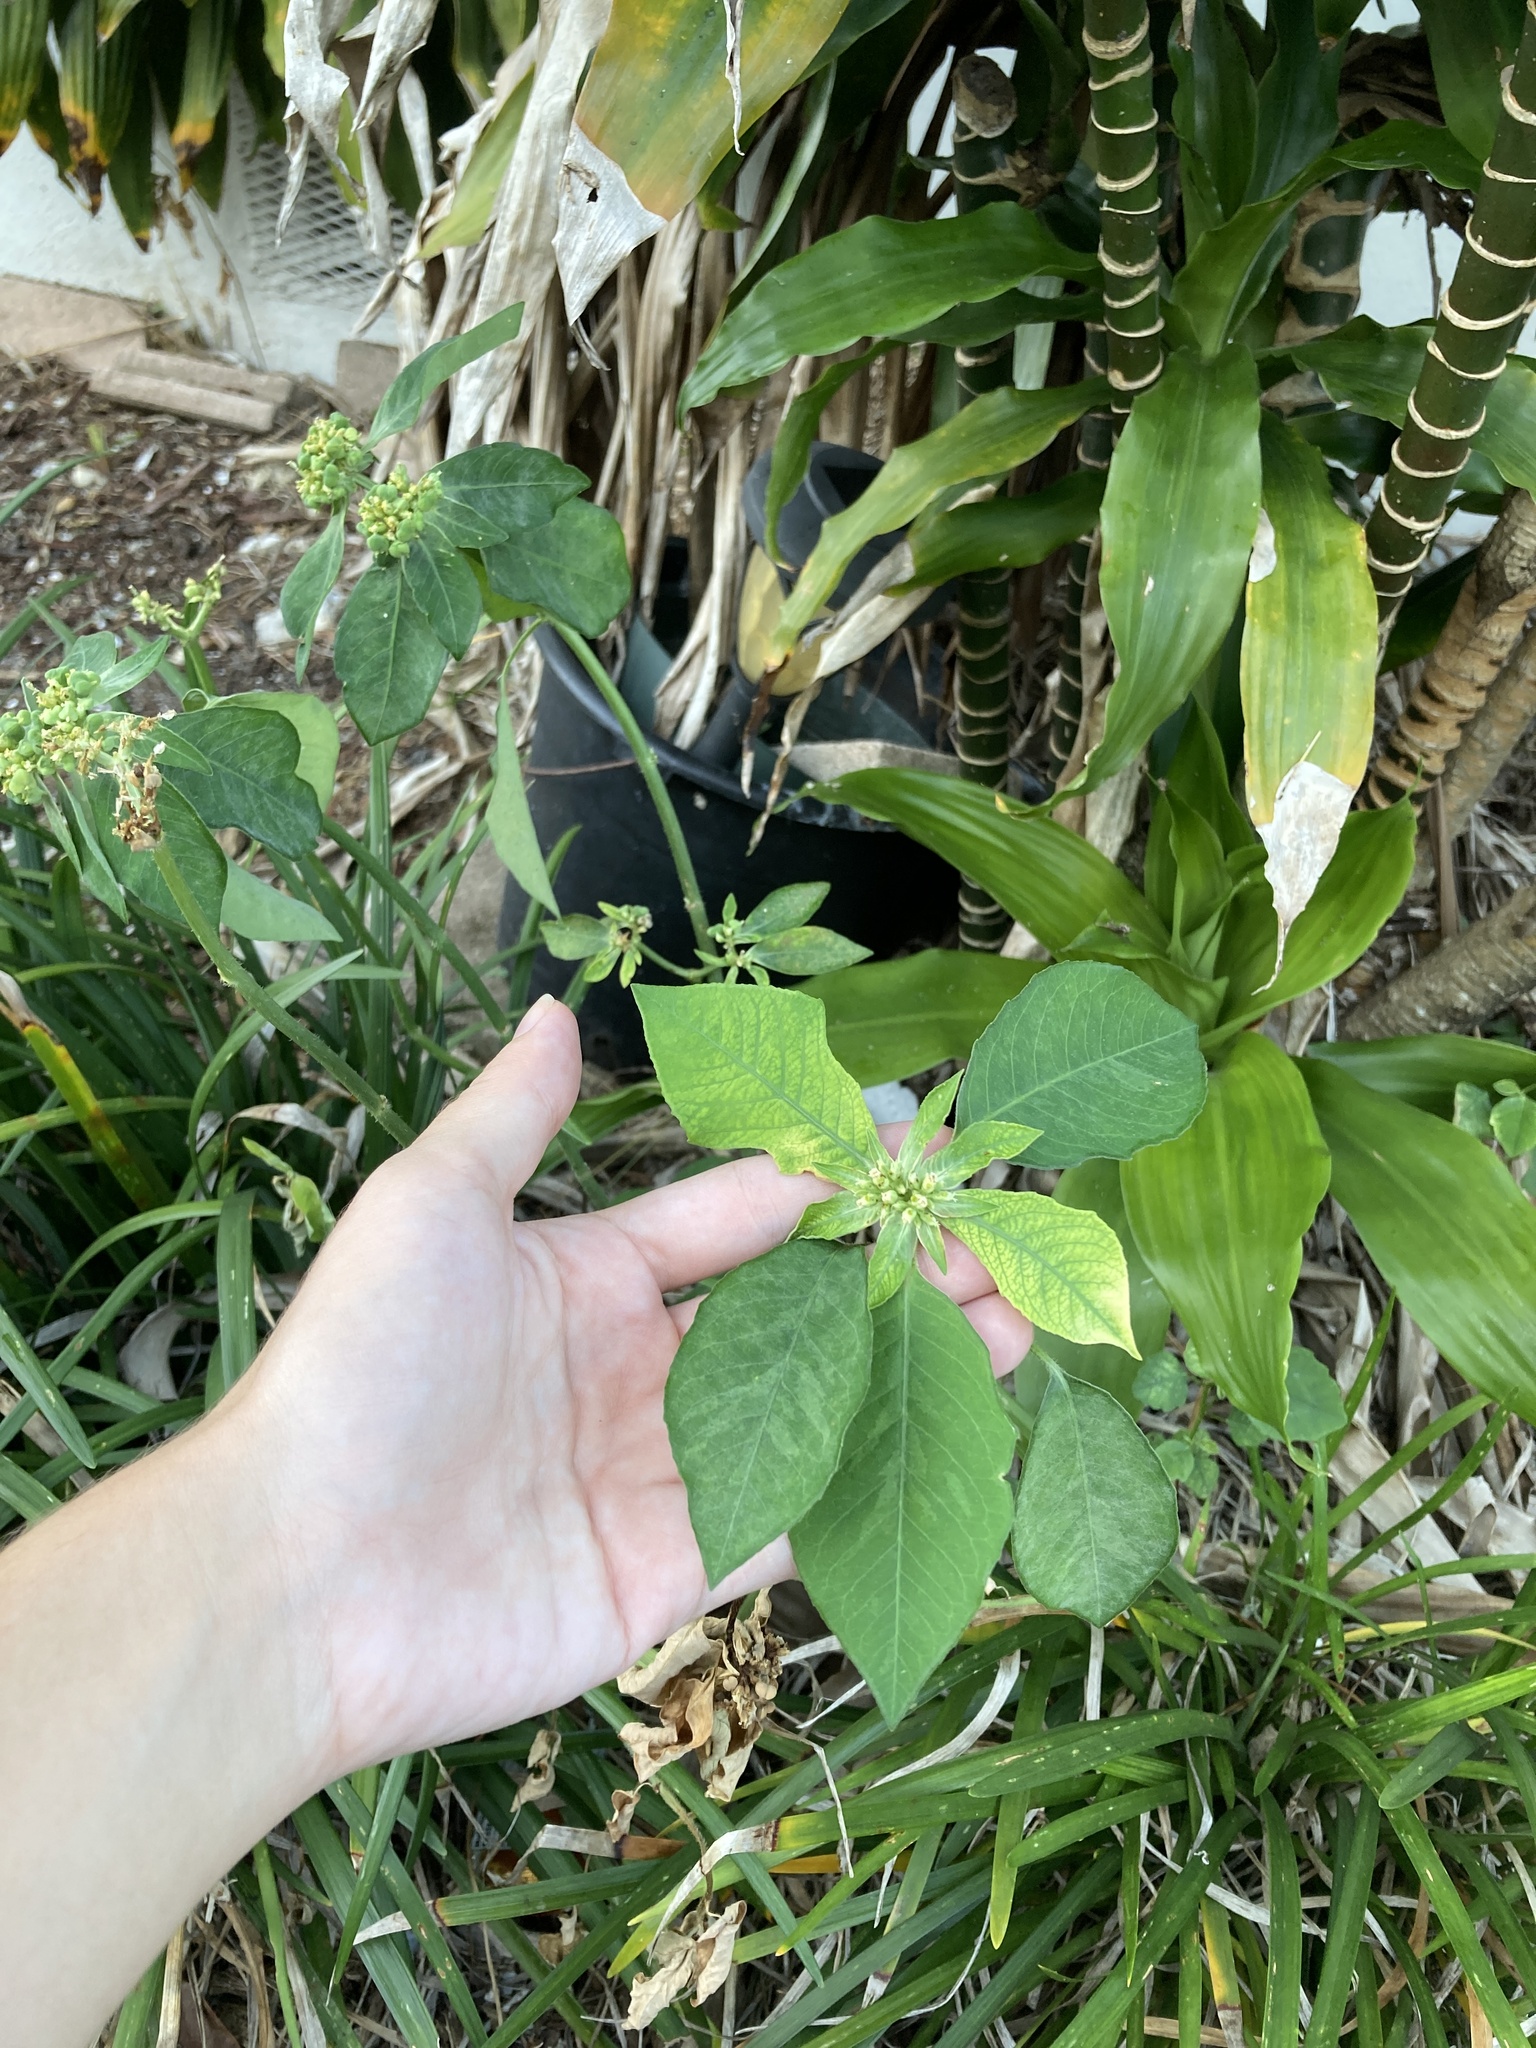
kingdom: Plantae
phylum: Tracheophyta
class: Magnoliopsida
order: Malpighiales
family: Euphorbiaceae
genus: Euphorbia
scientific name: Euphorbia heterophylla
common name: Mexican fireplant
